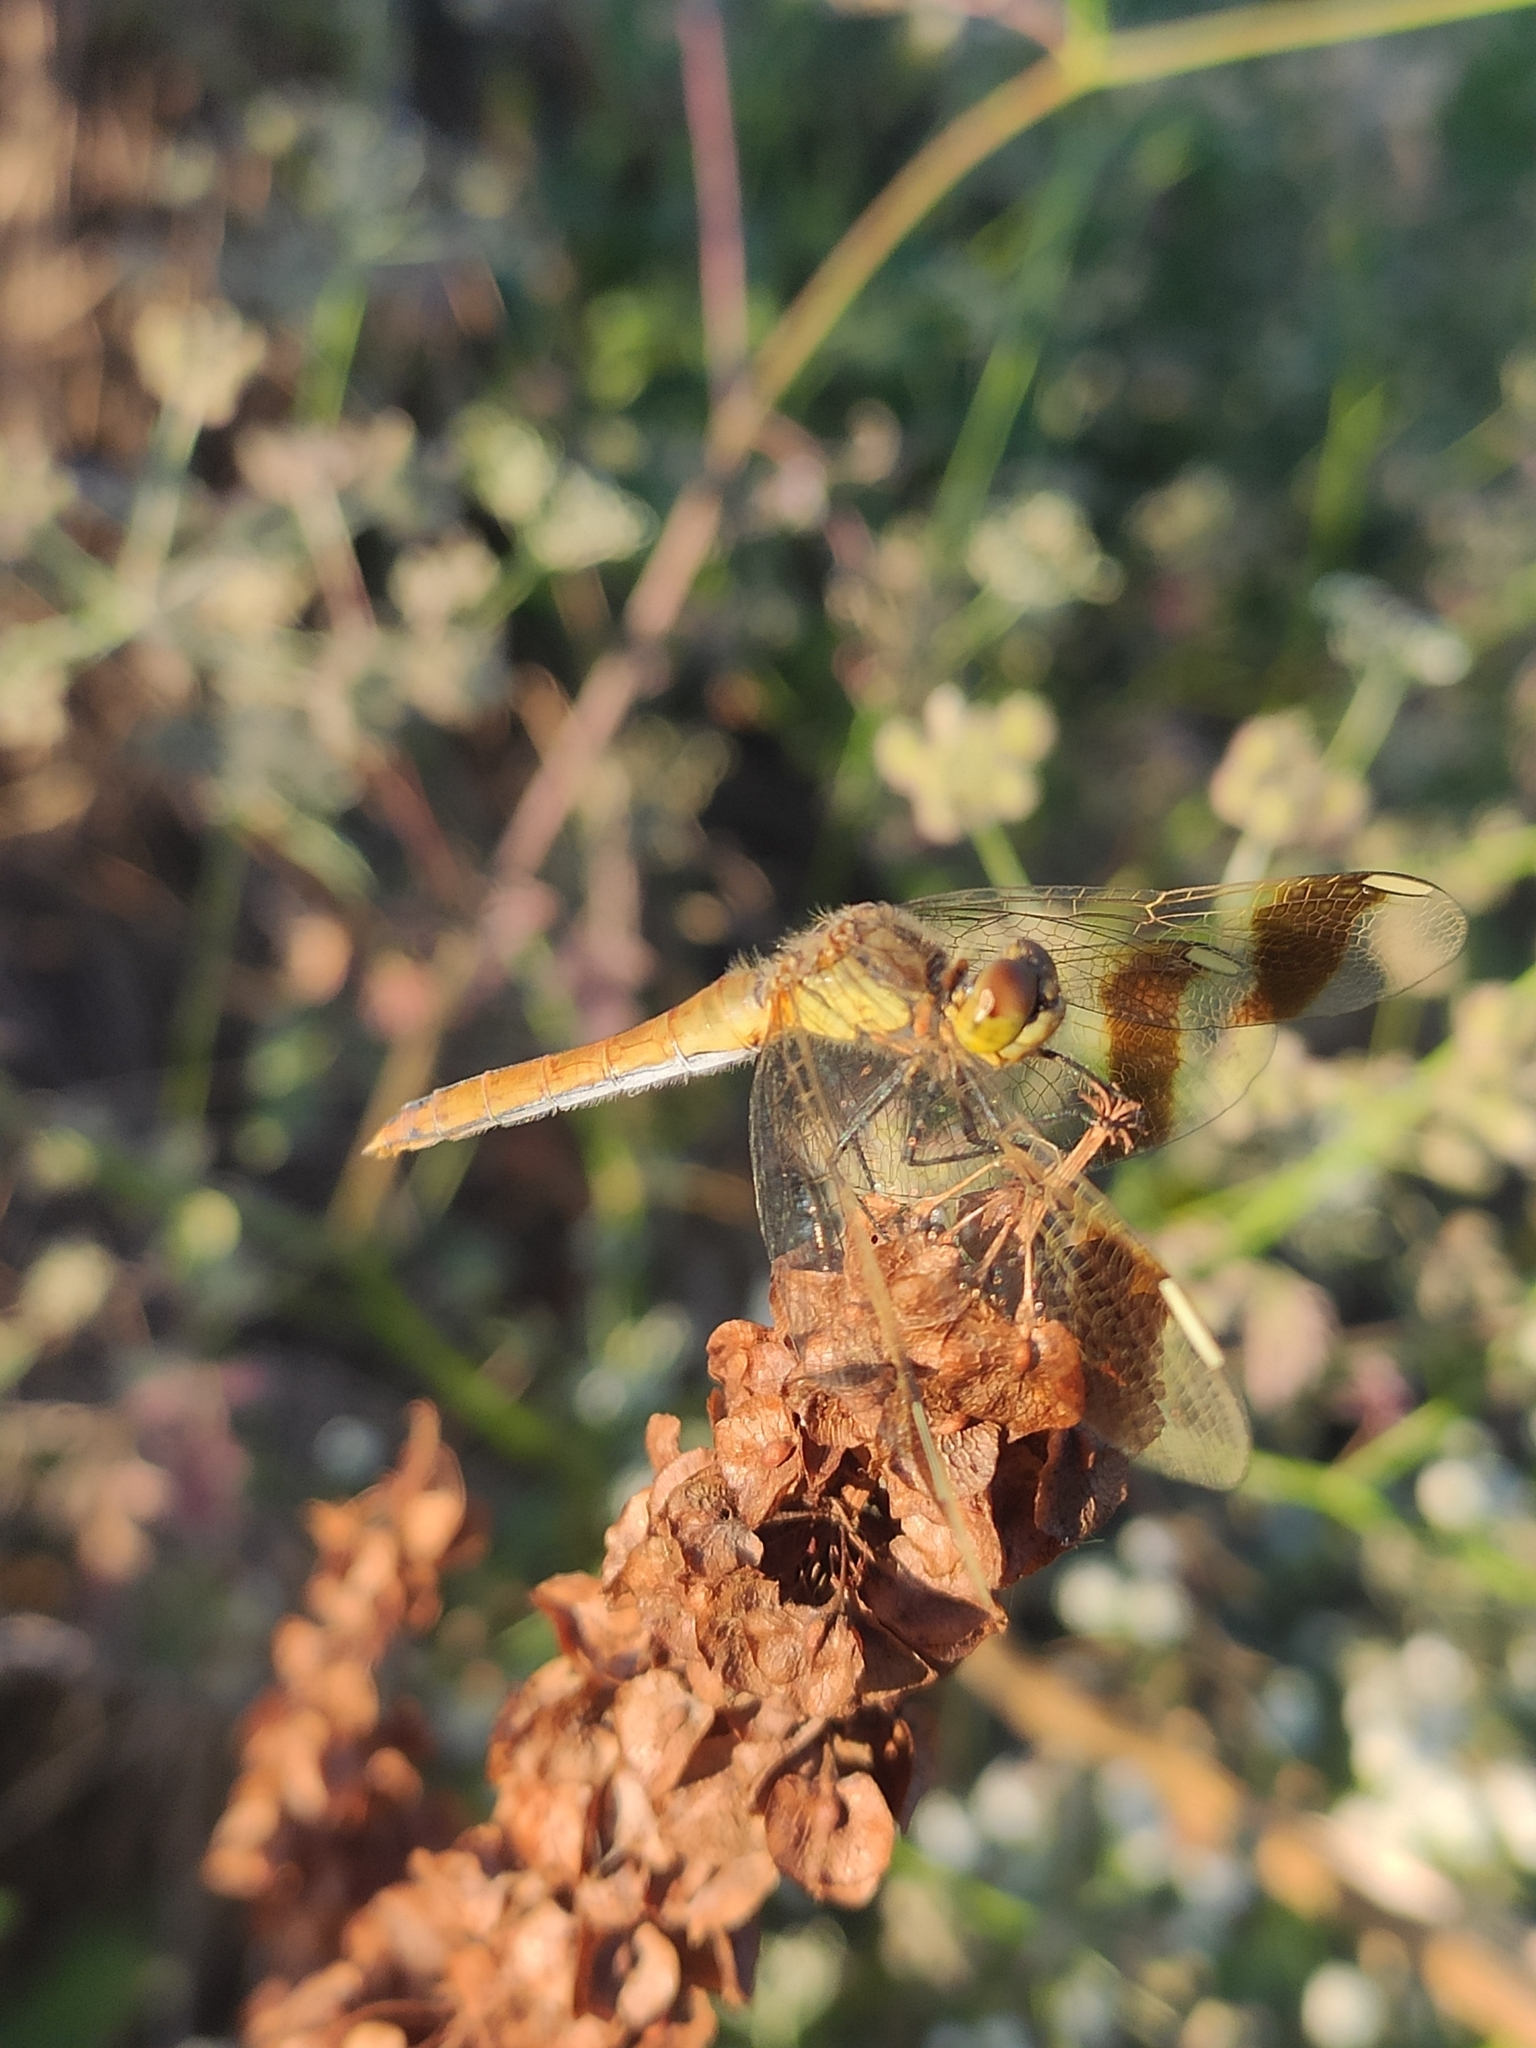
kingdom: Animalia
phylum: Arthropoda
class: Insecta
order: Odonata
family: Libellulidae
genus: Sympetrum
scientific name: Sympetrum pedemontanum
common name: Banded darter
